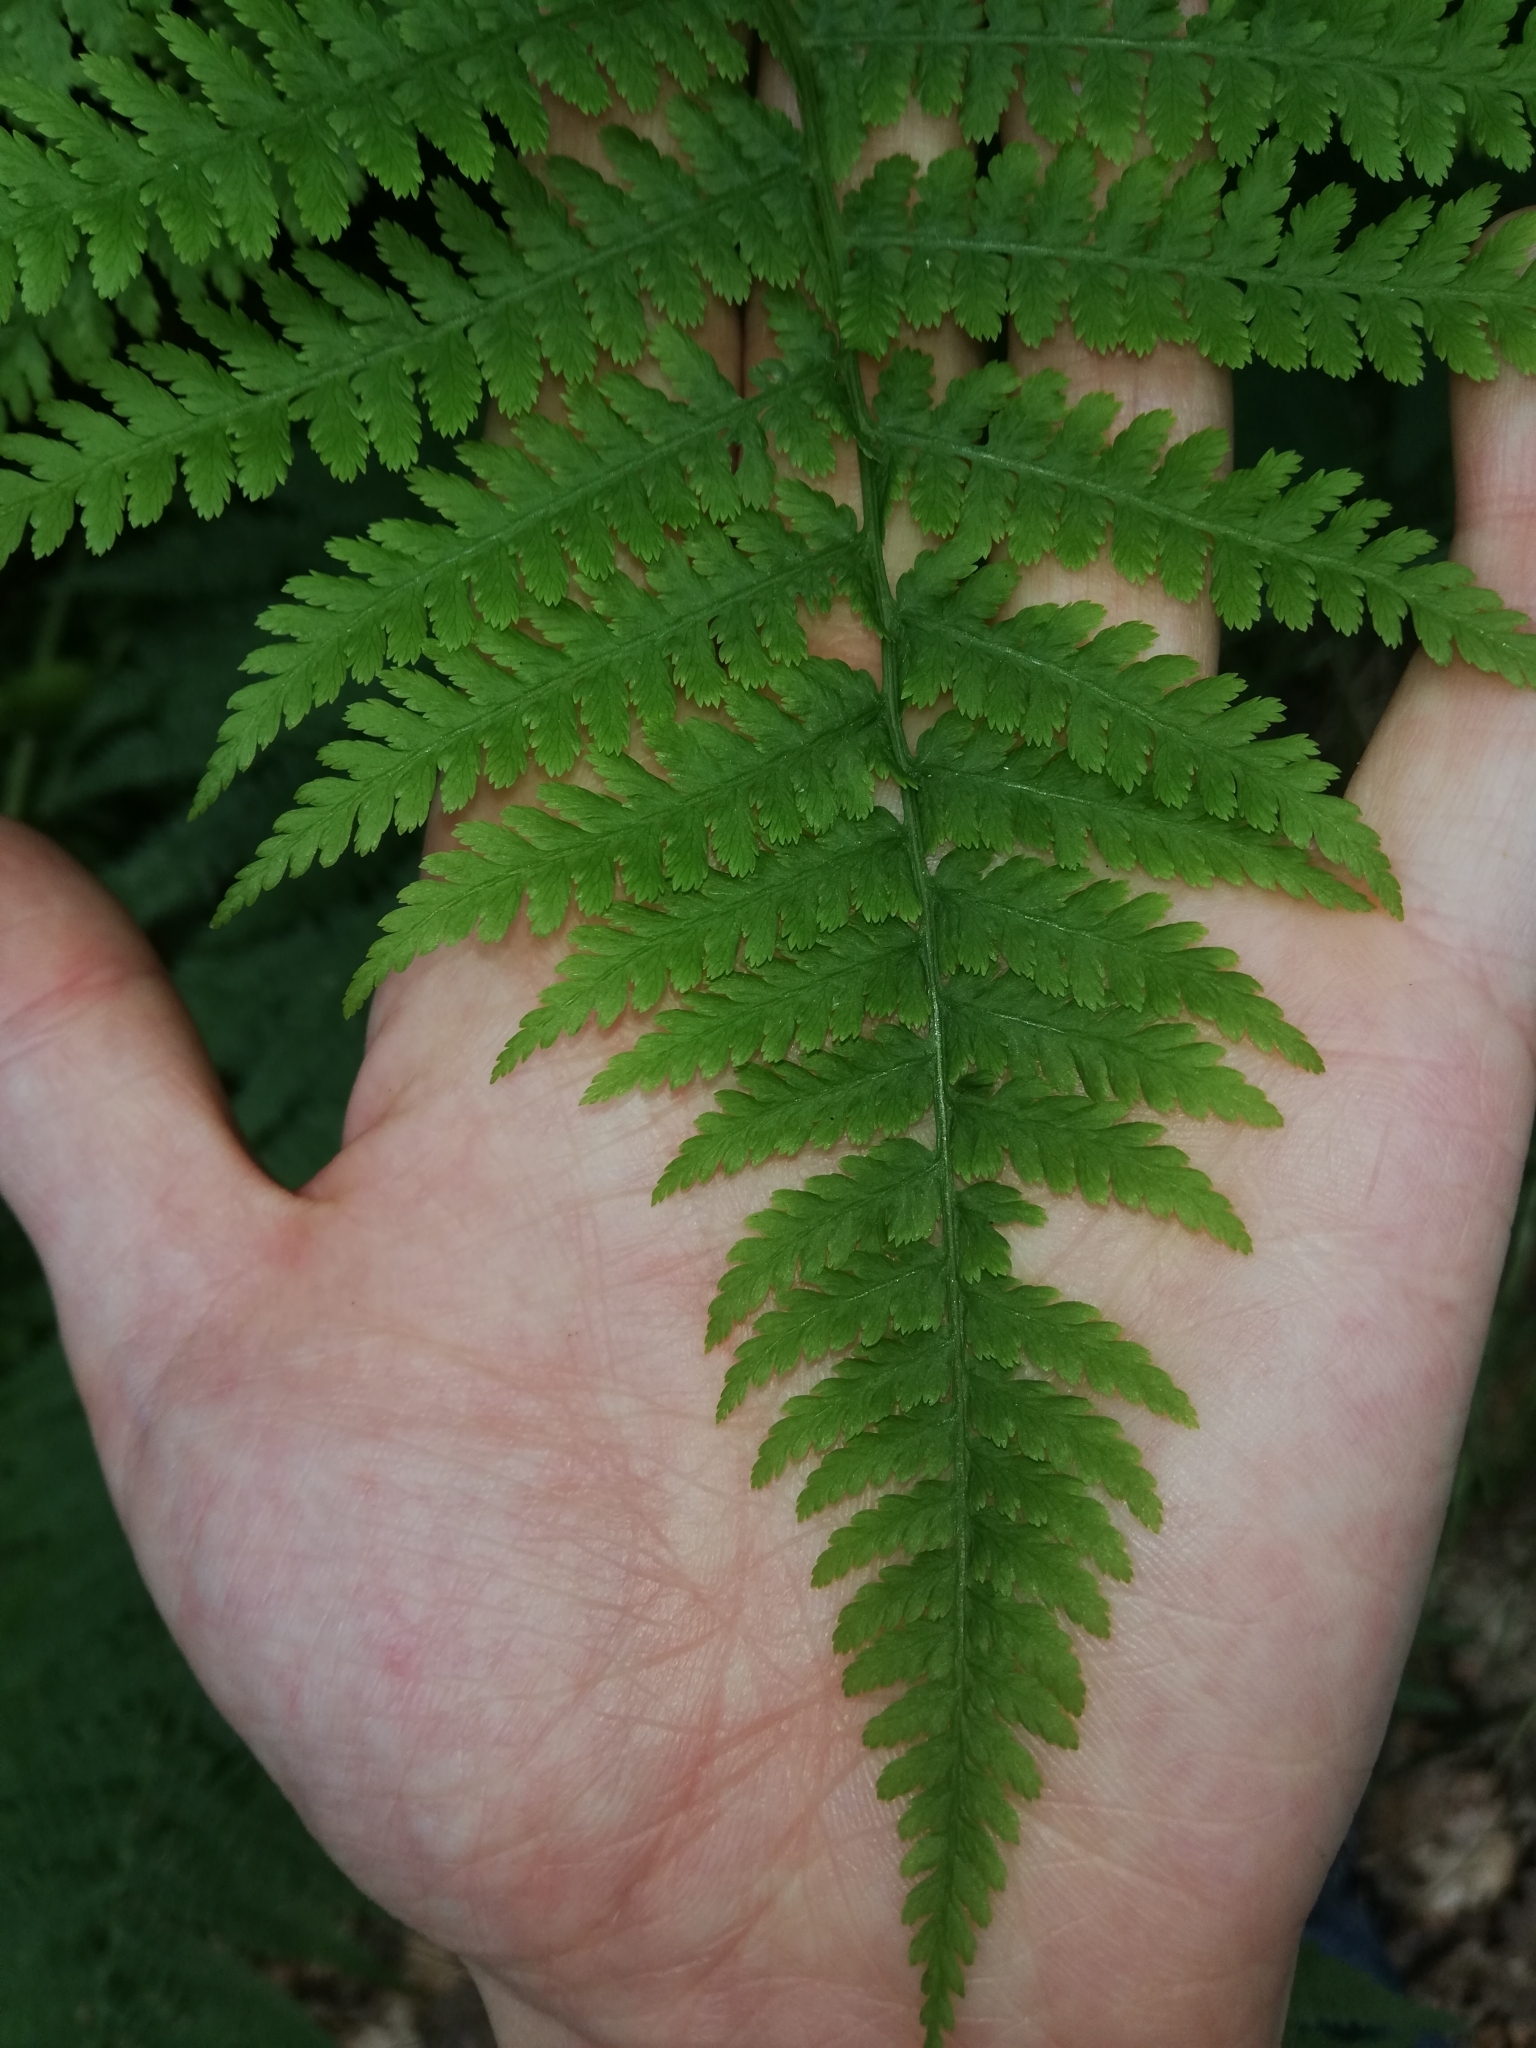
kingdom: Plantae
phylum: Tracheophyta
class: Polypodiopsida
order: Polypodiales
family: Athyriaceae
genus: Athyrium
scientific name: Athyrium filix-femina
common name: Lady fern
